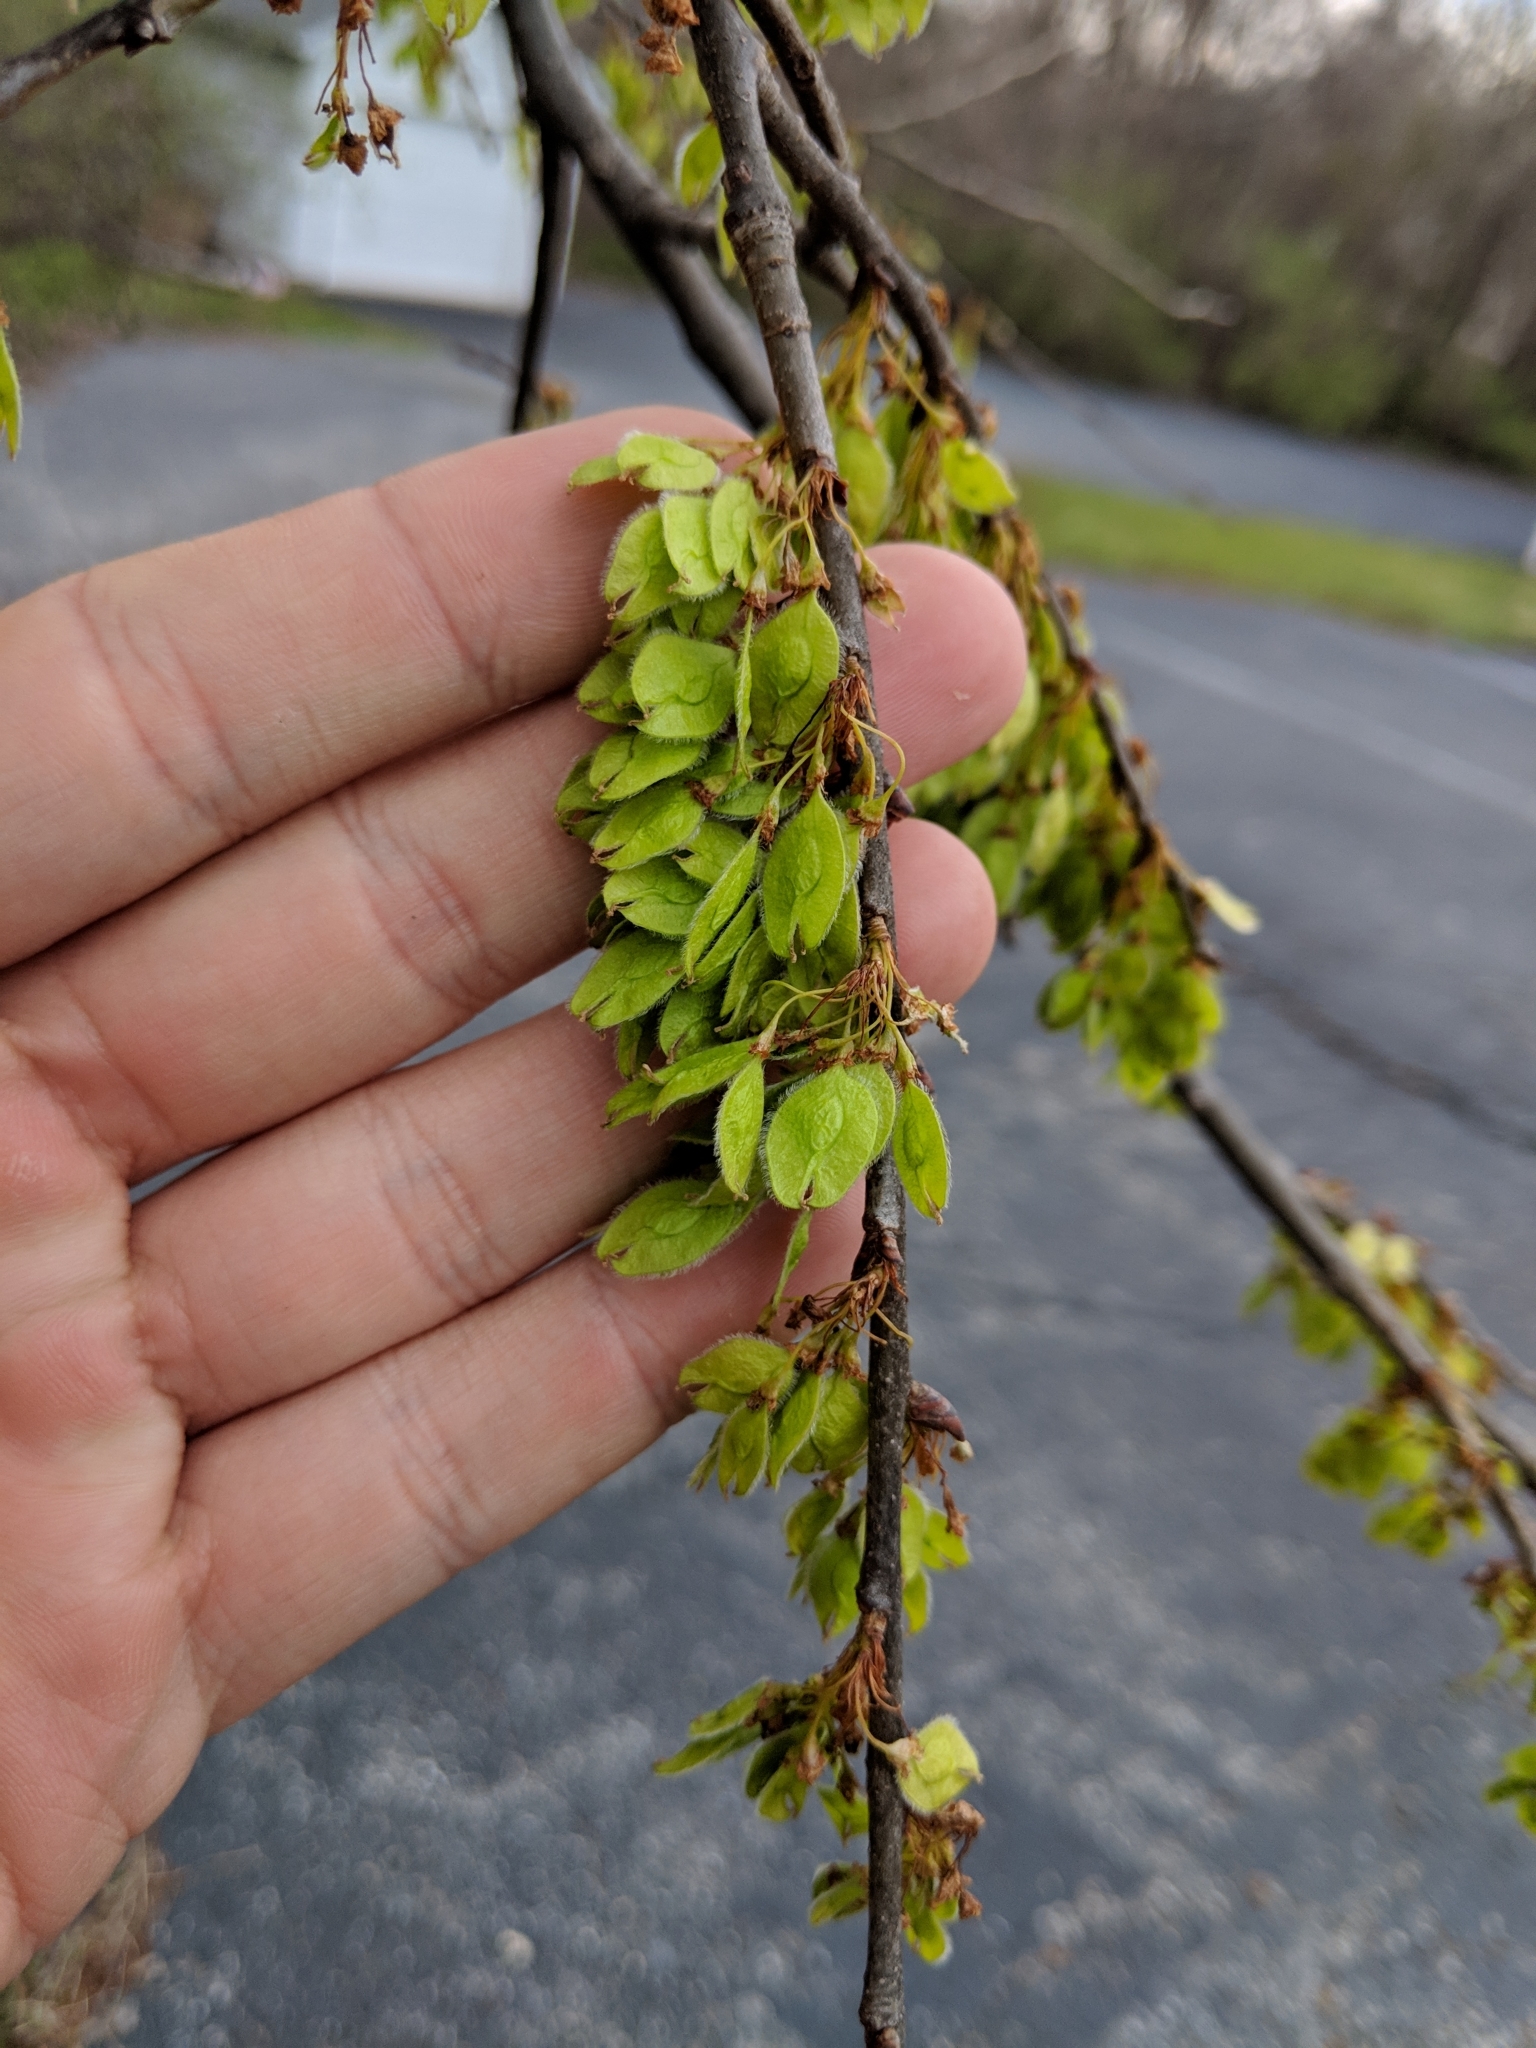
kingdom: Plantae
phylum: Tracheophyta
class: Magnoliopsida
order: Rosales
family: Ulmaceae
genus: Ulmus
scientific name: Ulmus americana
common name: American elm
